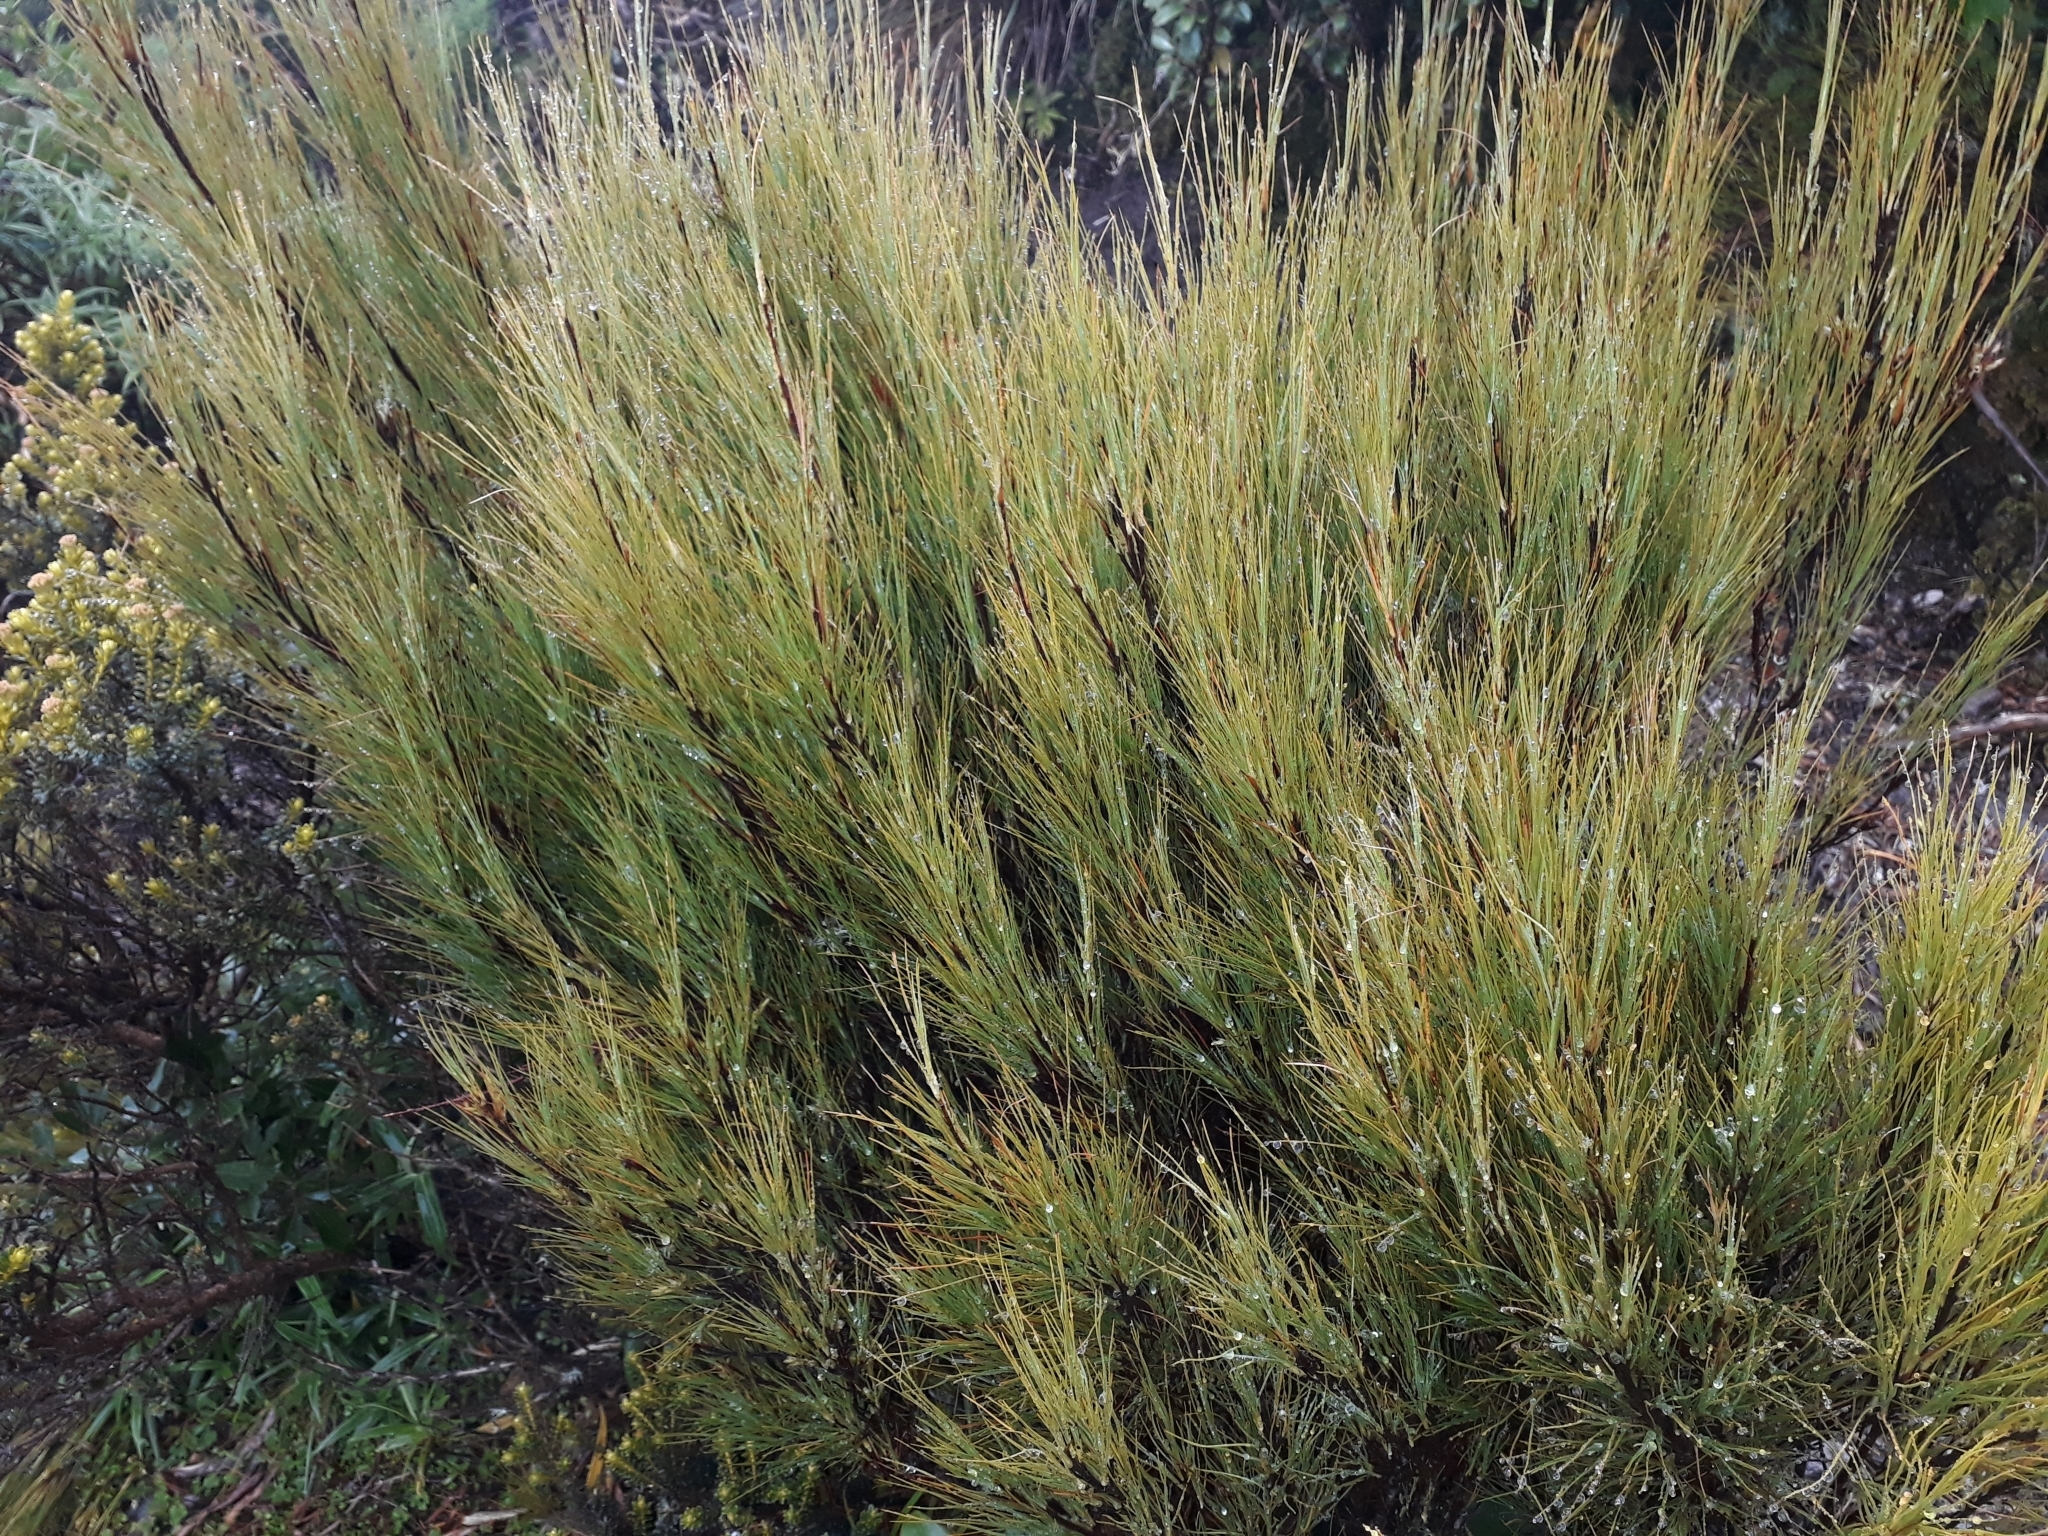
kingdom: Plantae
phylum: Tracheophyta
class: Magnoliopsida
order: Ericales
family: Ericaceae
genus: Dracophyllum
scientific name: Dracophyllum filifolium
